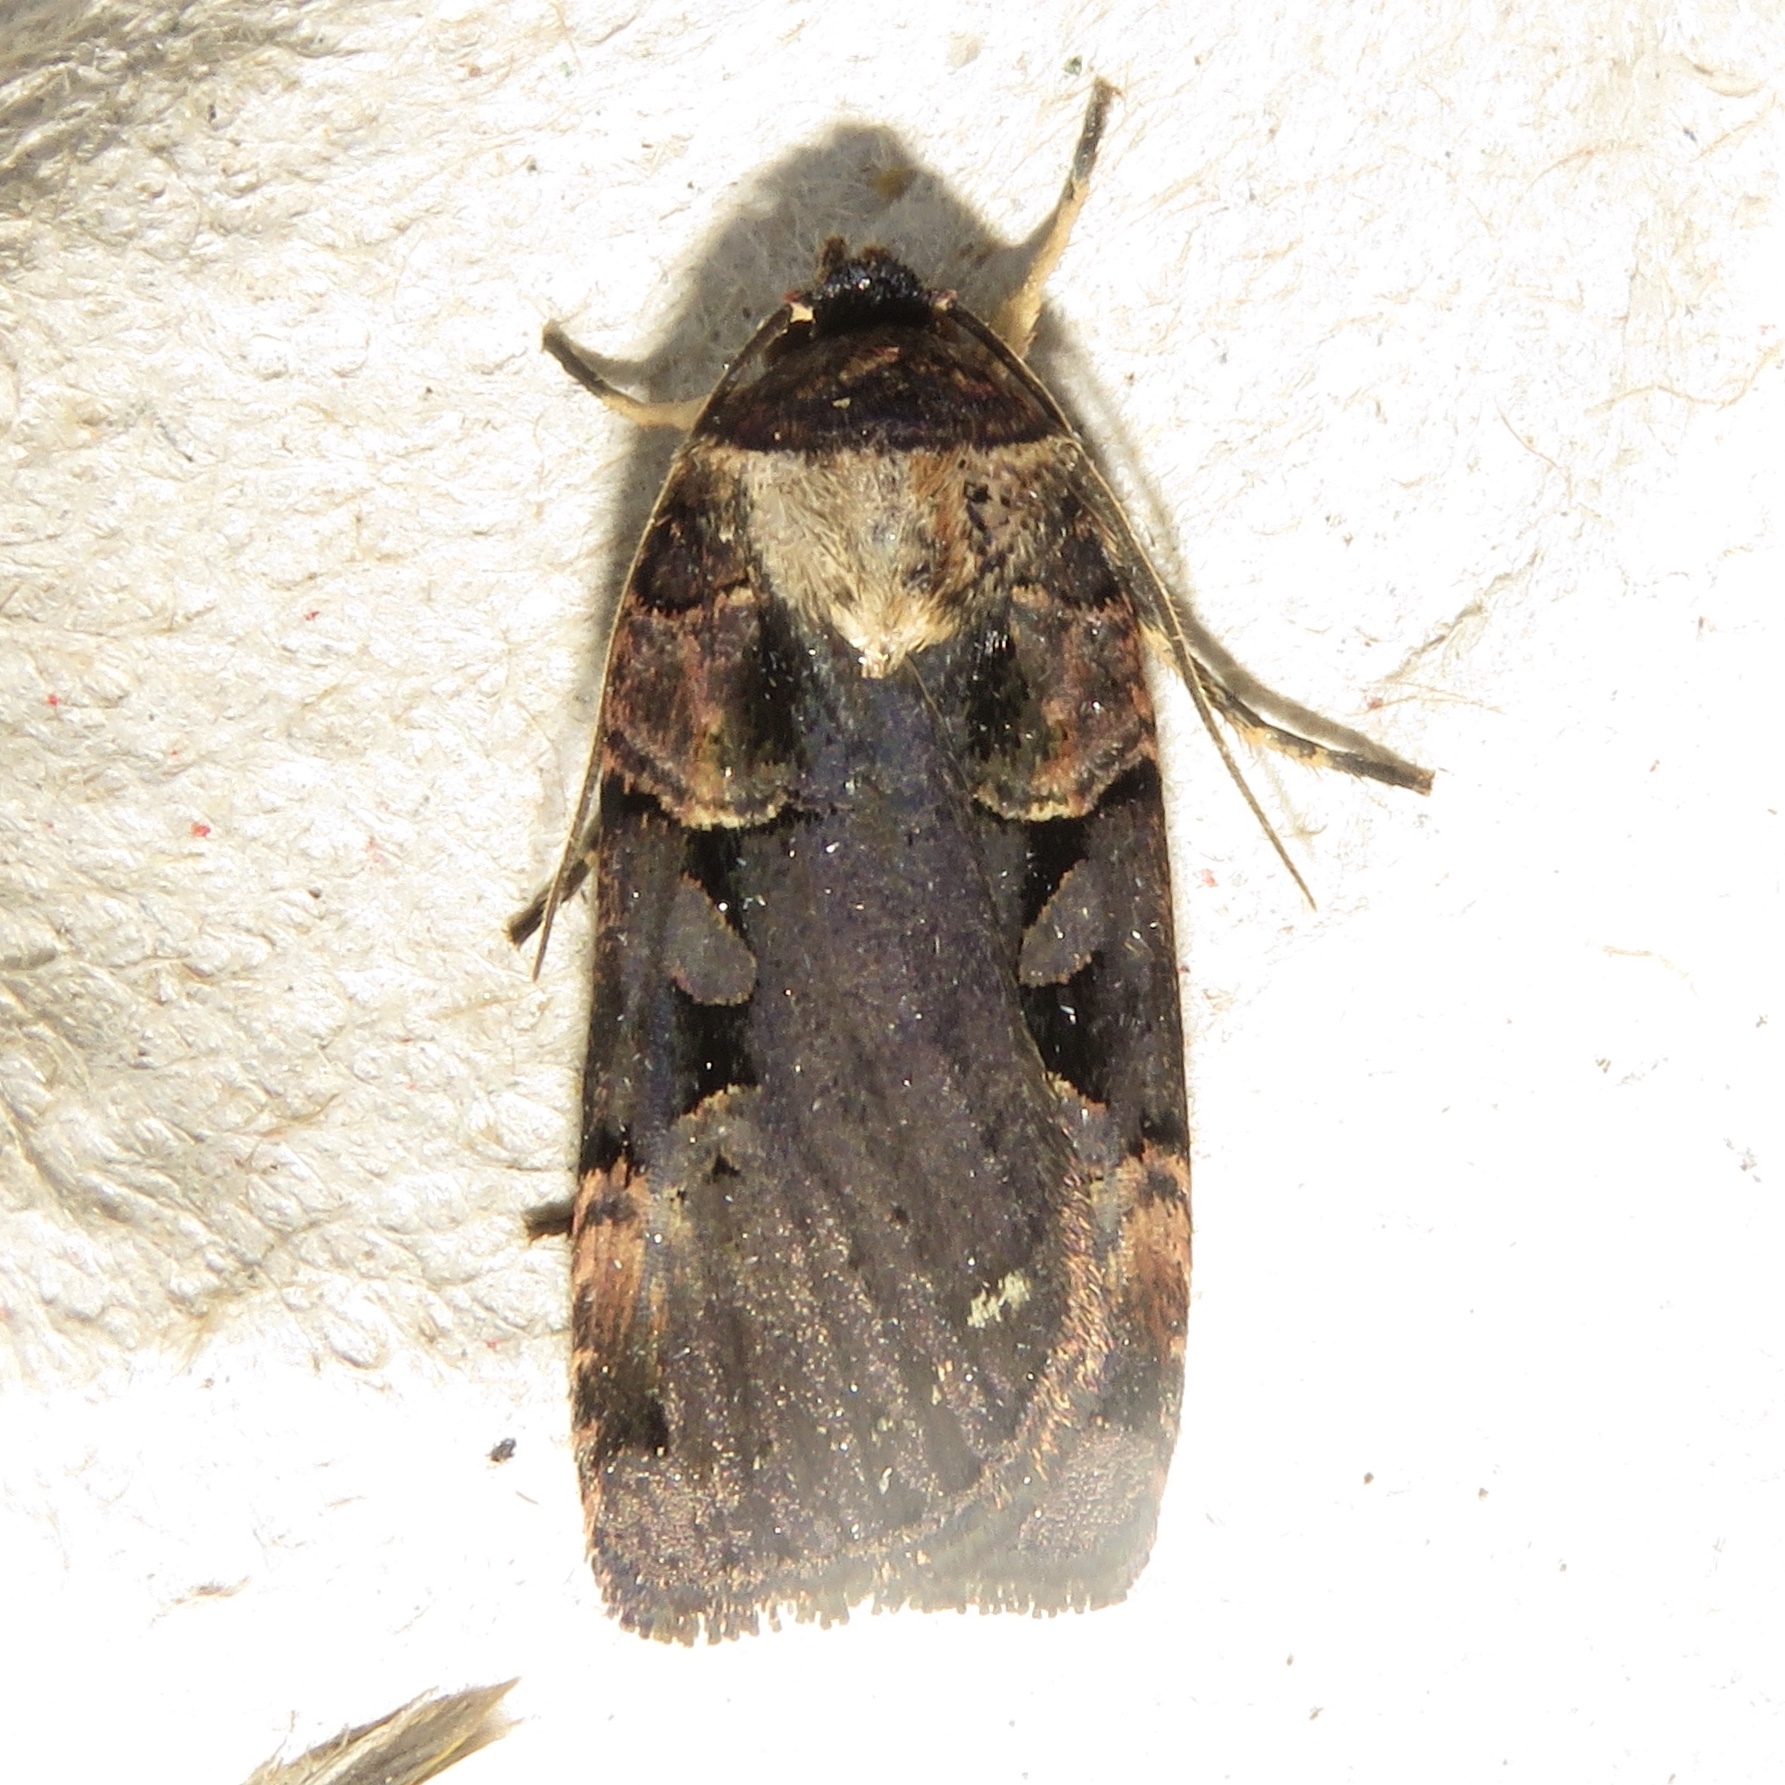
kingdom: Animalia
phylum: Arthropoda
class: Insecta
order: Lepidoptera
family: Noctuidae
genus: Pseudohermonassa
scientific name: Pseudohermonassa bicarnea
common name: Pink spotted dart
